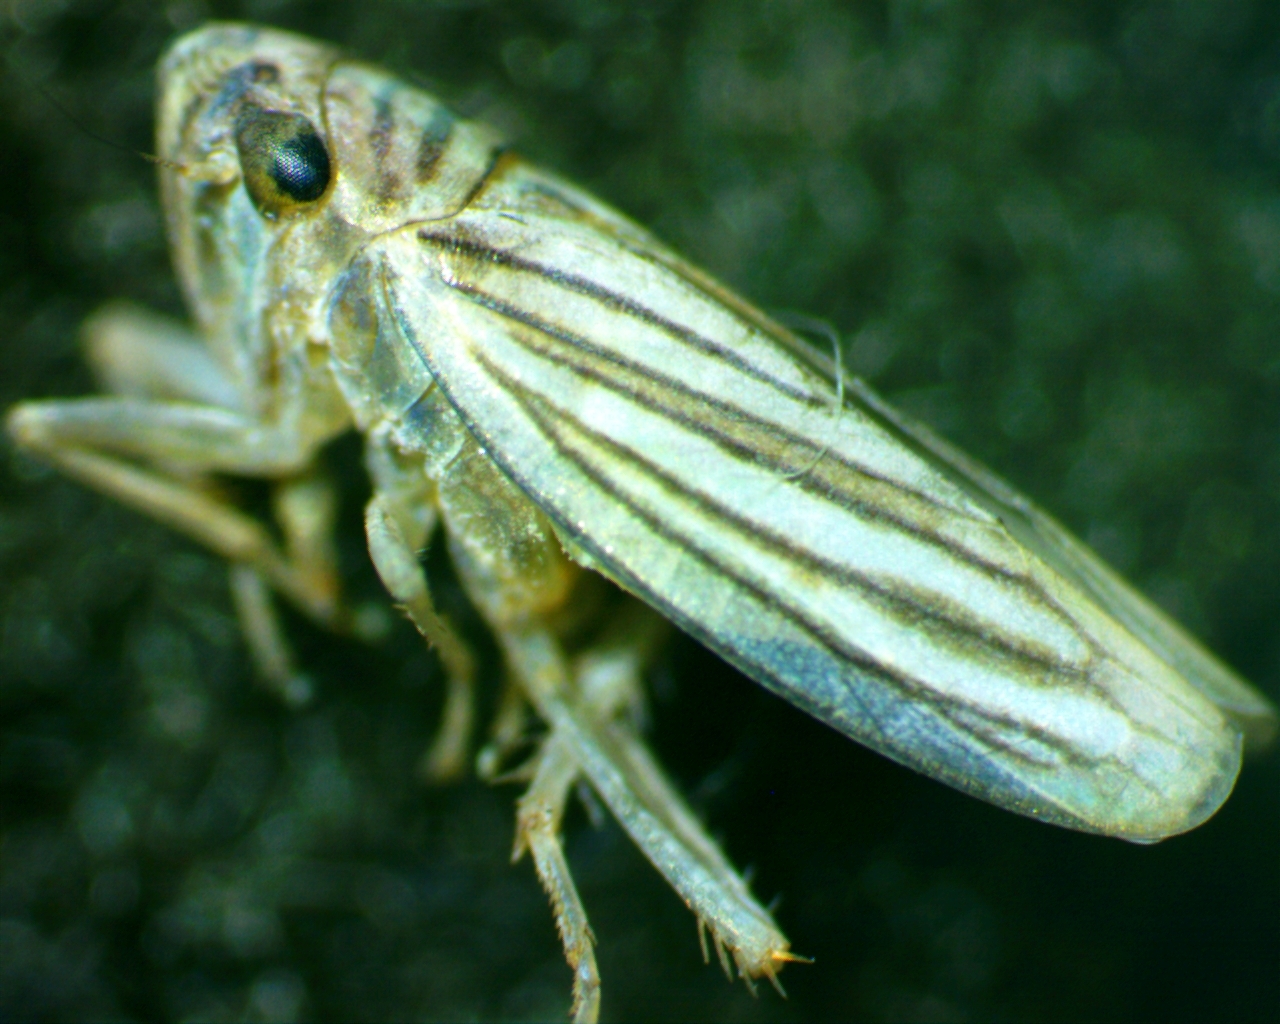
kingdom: Animalia
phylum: Arthropoda
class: Insecta
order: Hemiptera
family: Cicadellidae
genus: Provancherana
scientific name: Provancherana tripunctata
